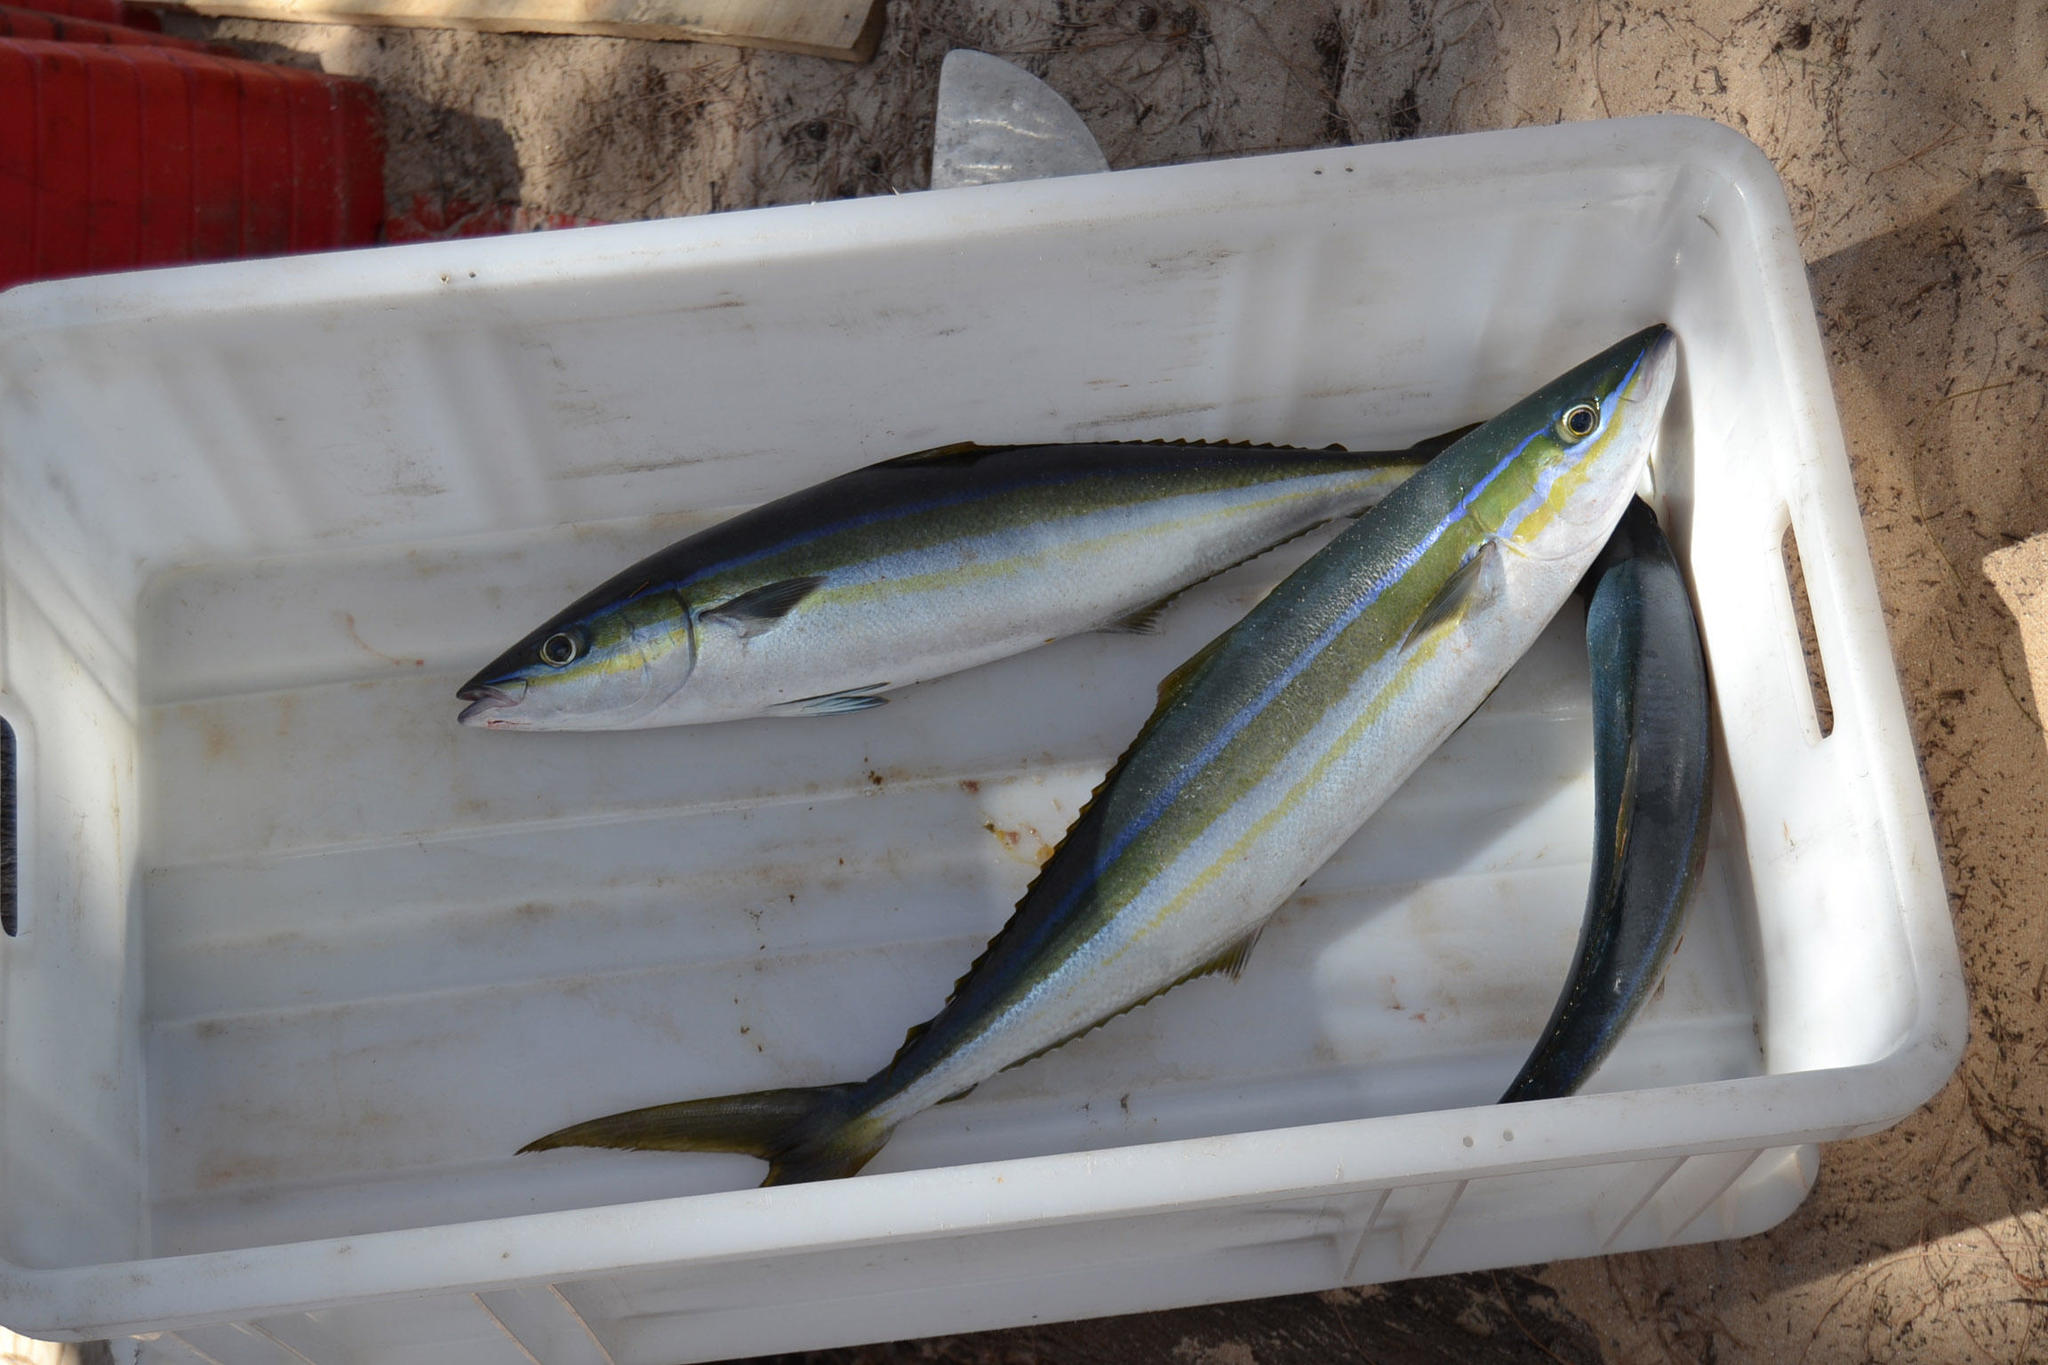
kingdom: Animalia
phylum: Chordata
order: Perciformes
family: Carangidae
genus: Elagatis
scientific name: Elagatis bipinnulata
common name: Rainbow runner
